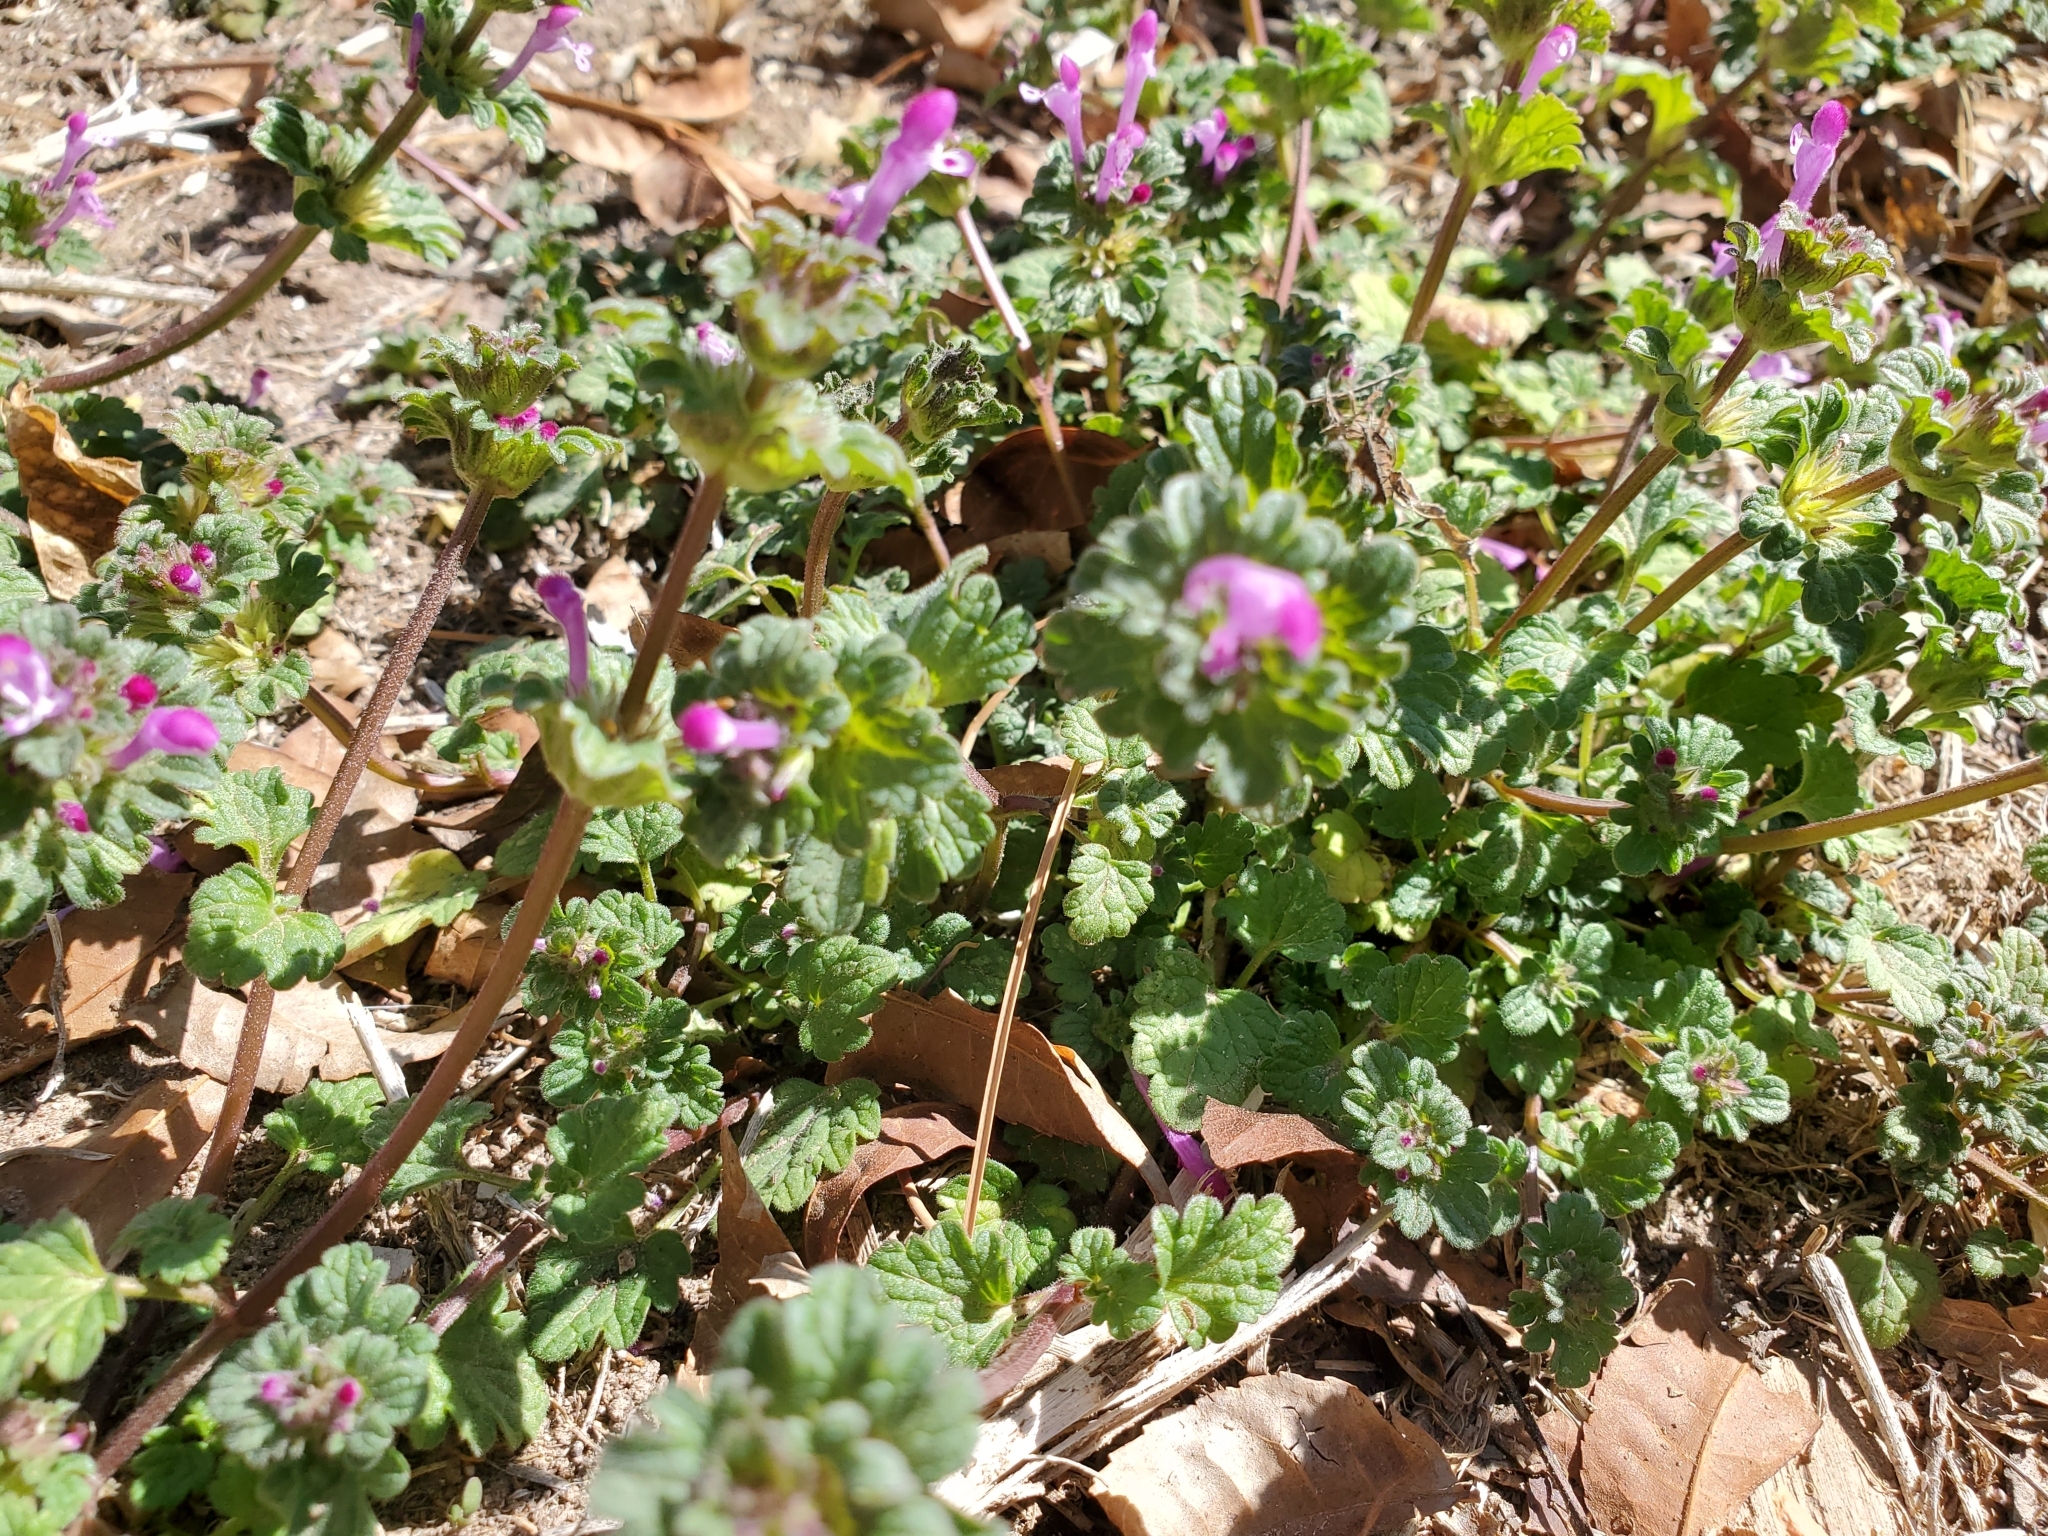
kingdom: Plantae
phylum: Tracheophyta
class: Magnoliopsida
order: Lamiales
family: Lamiaceae
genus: Lamium
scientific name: Lamium amplexicaule
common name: Henbit dead-nettle
